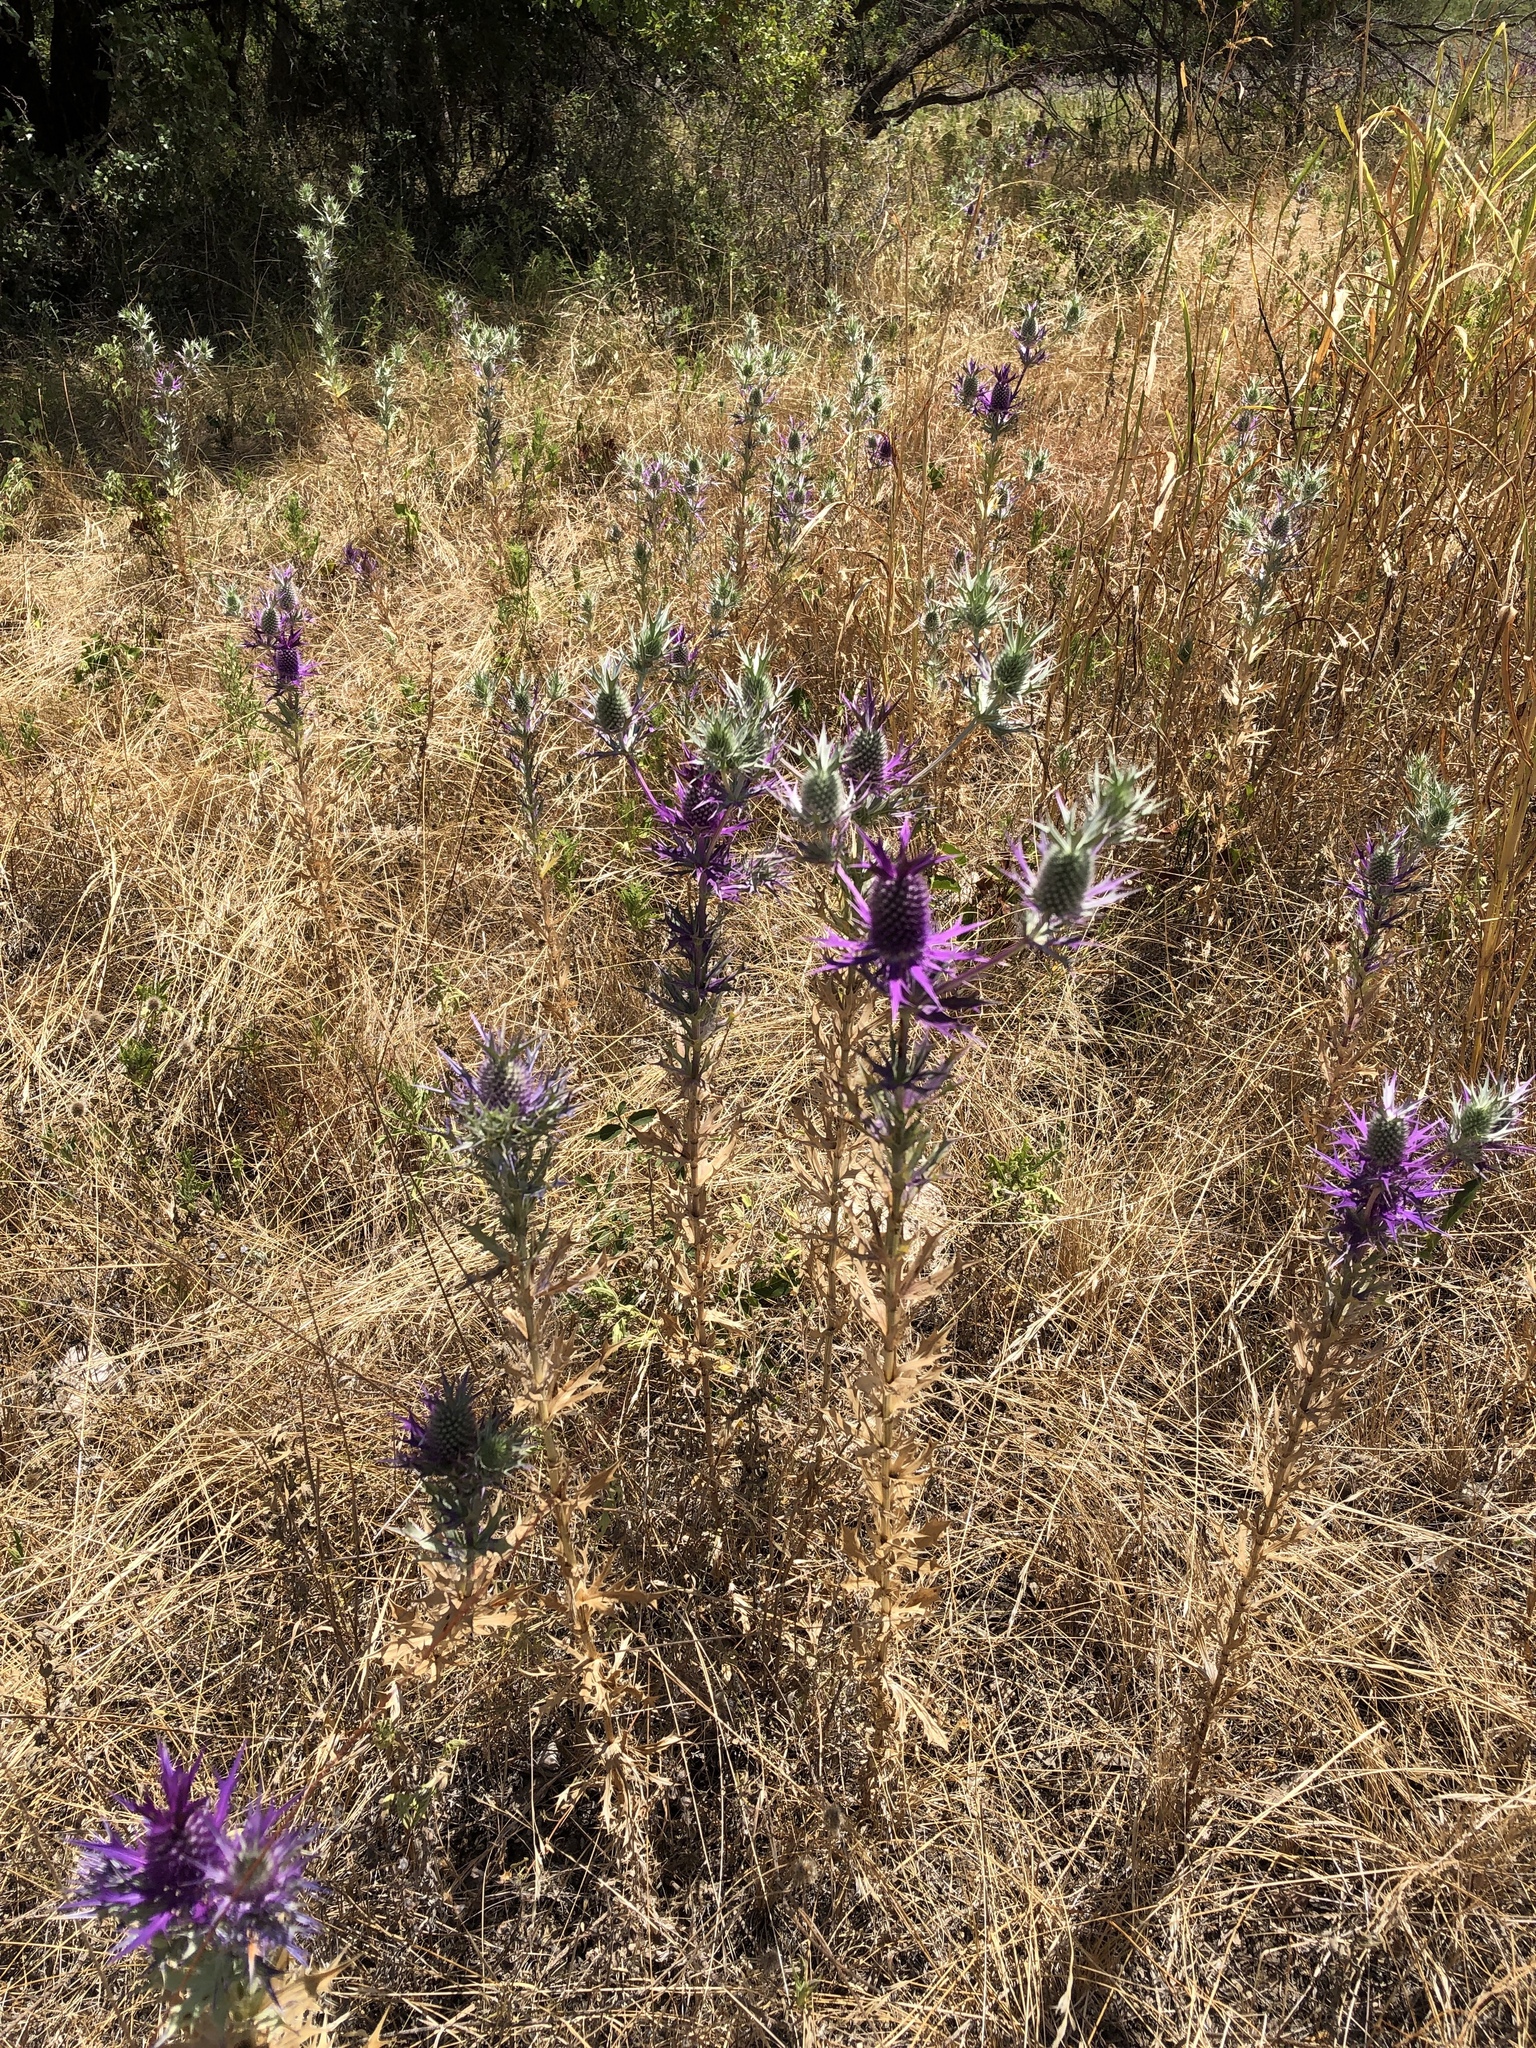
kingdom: Plantae
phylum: Tracheophyta
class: Magnoliopsida
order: Apiales
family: Apiaceae
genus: Eryngium
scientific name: Eryngium leavenworthii
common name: Leavenworth's eryngo
